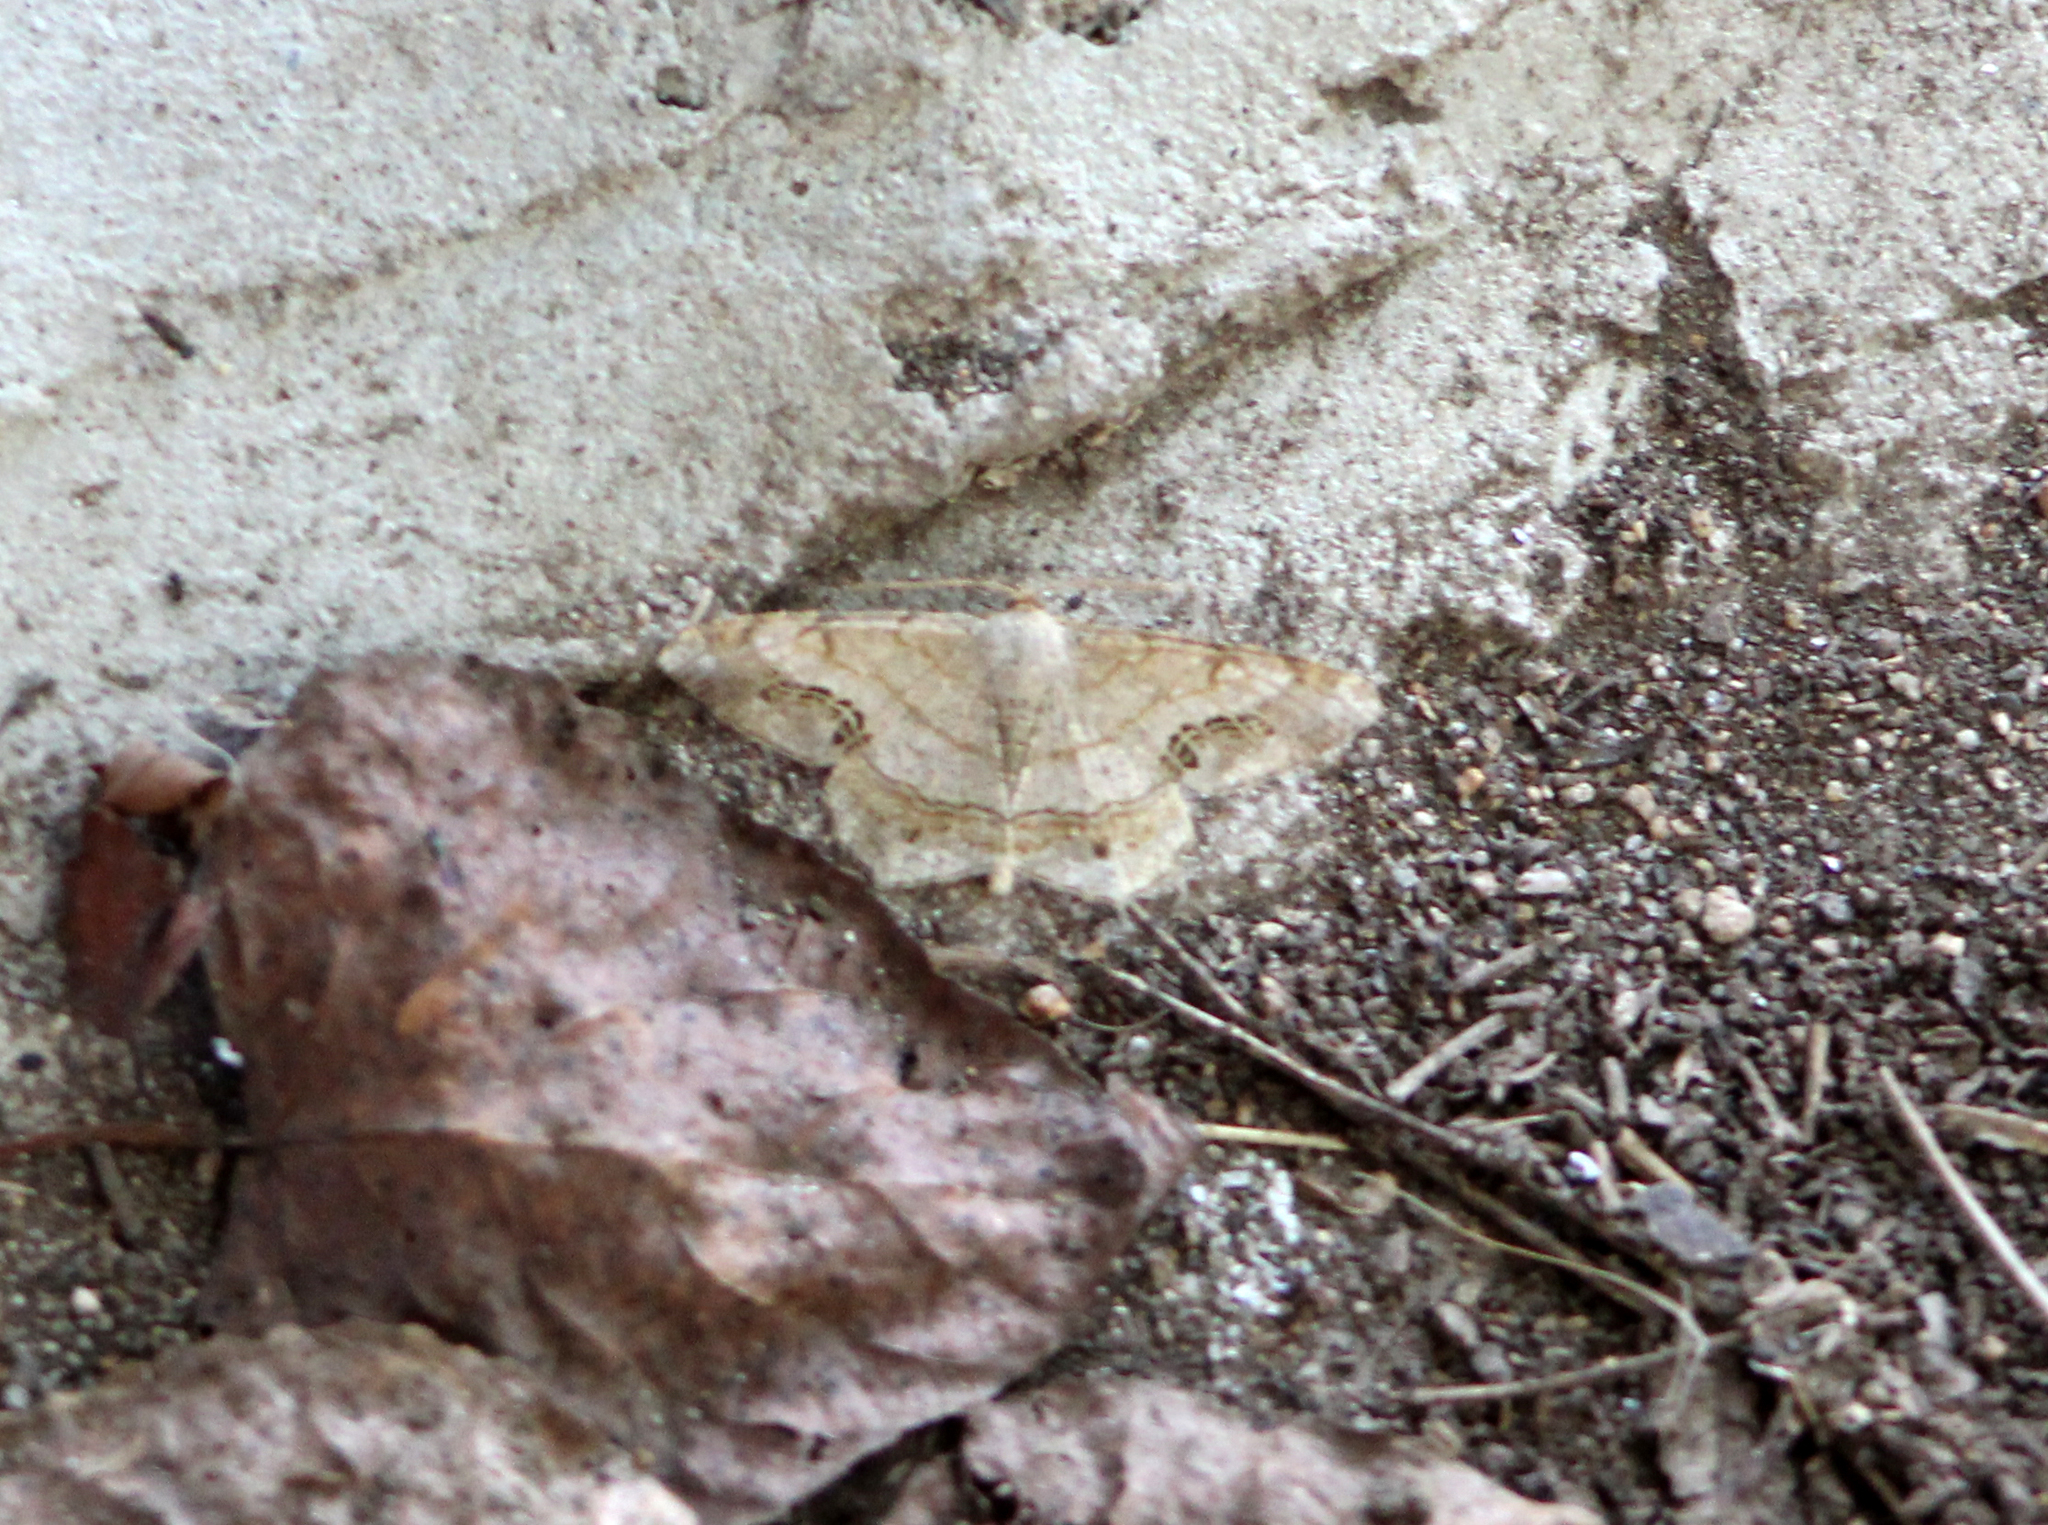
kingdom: Animalia
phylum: Arthropoda
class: Insecta
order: Lepidoptera
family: Geometridae
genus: Semiothisa
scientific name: Semiothisa cinerearia
